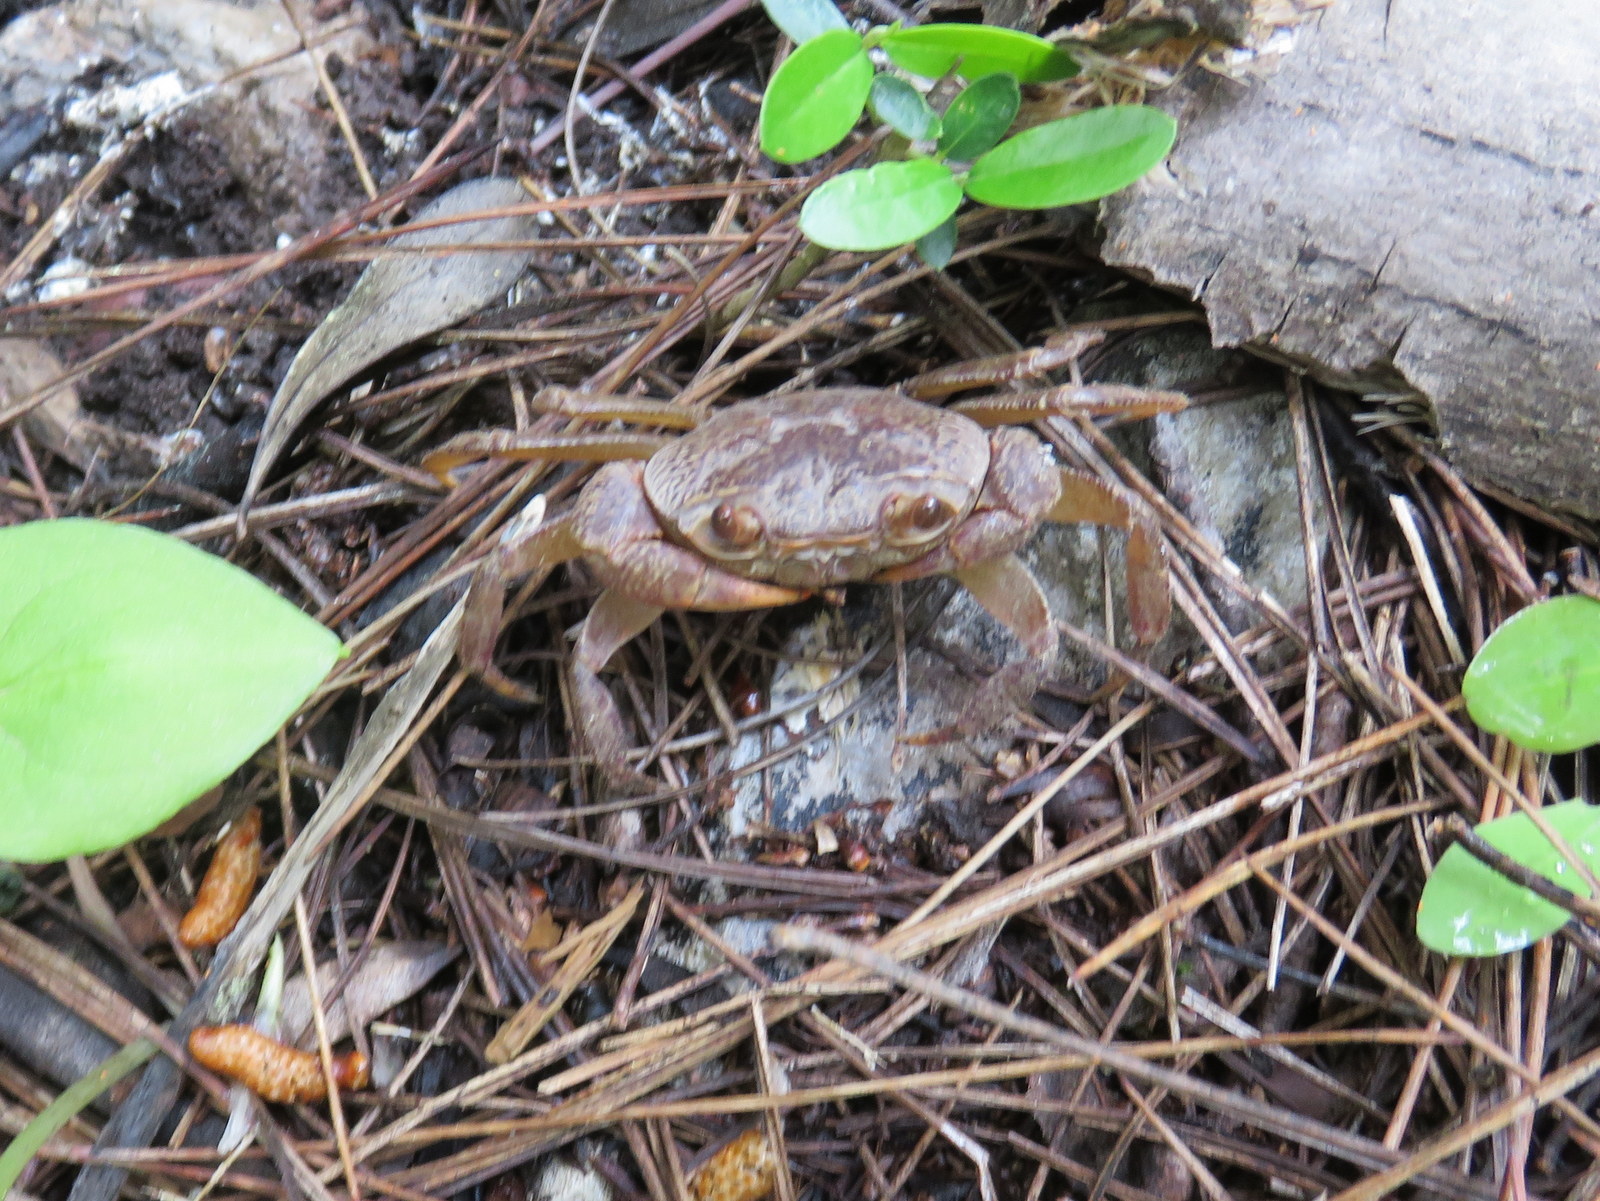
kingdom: Animalia
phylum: Arthropoda
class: Malacostraca
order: Decapoda
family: Potamidae
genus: Potamon
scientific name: Potamon rhodium
